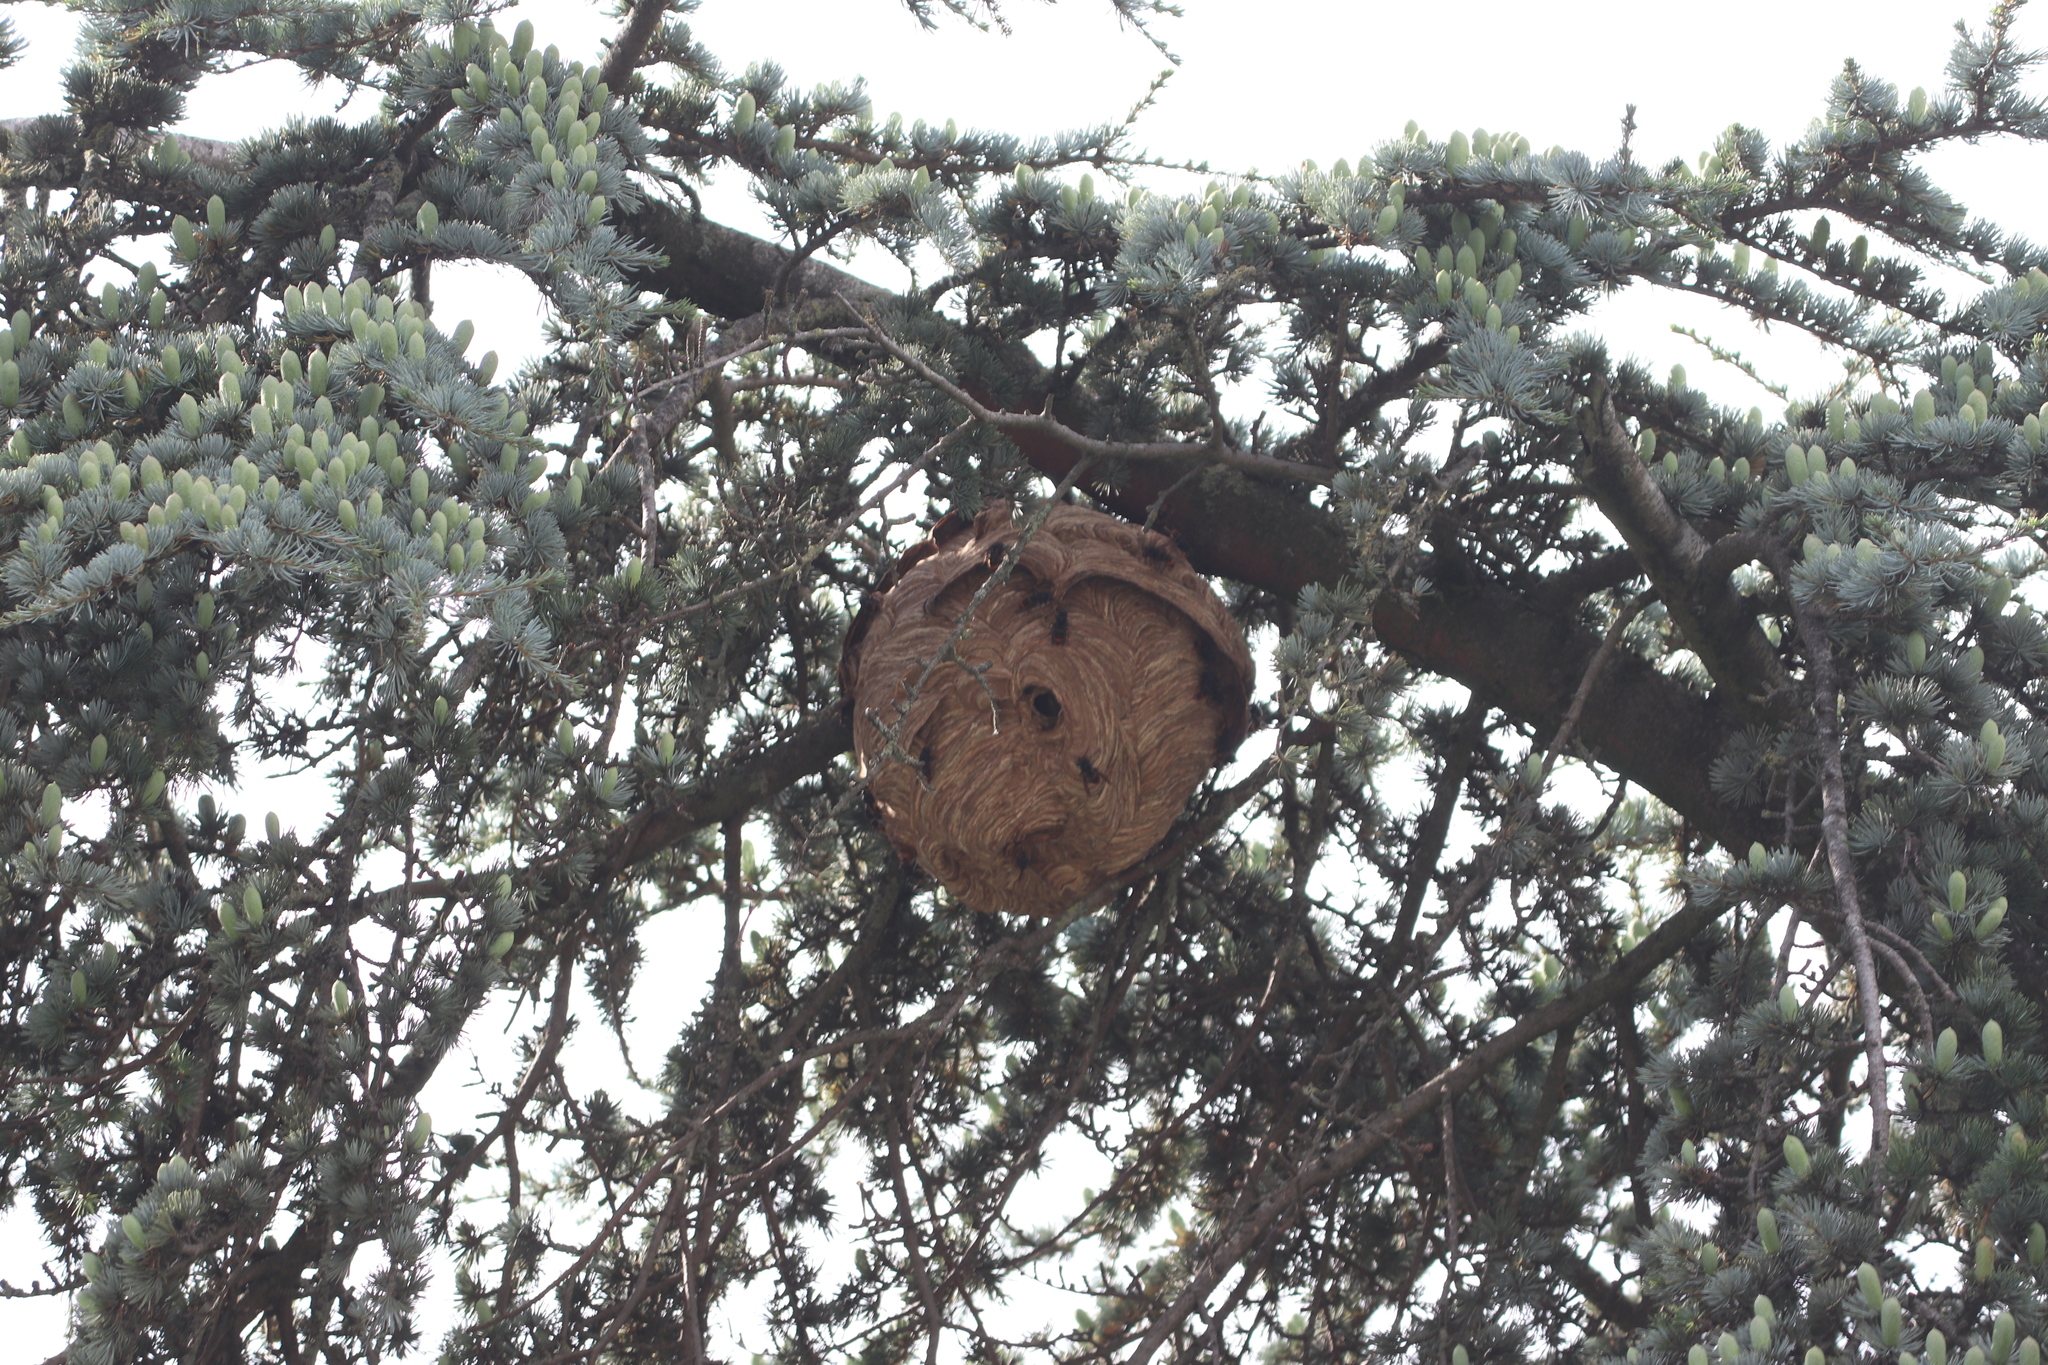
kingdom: Animalia
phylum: Arthropoda
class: Insecta
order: Hymenoptera
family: Vespidae
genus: Vespa
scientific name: Vespa velutina
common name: Asian hornet
